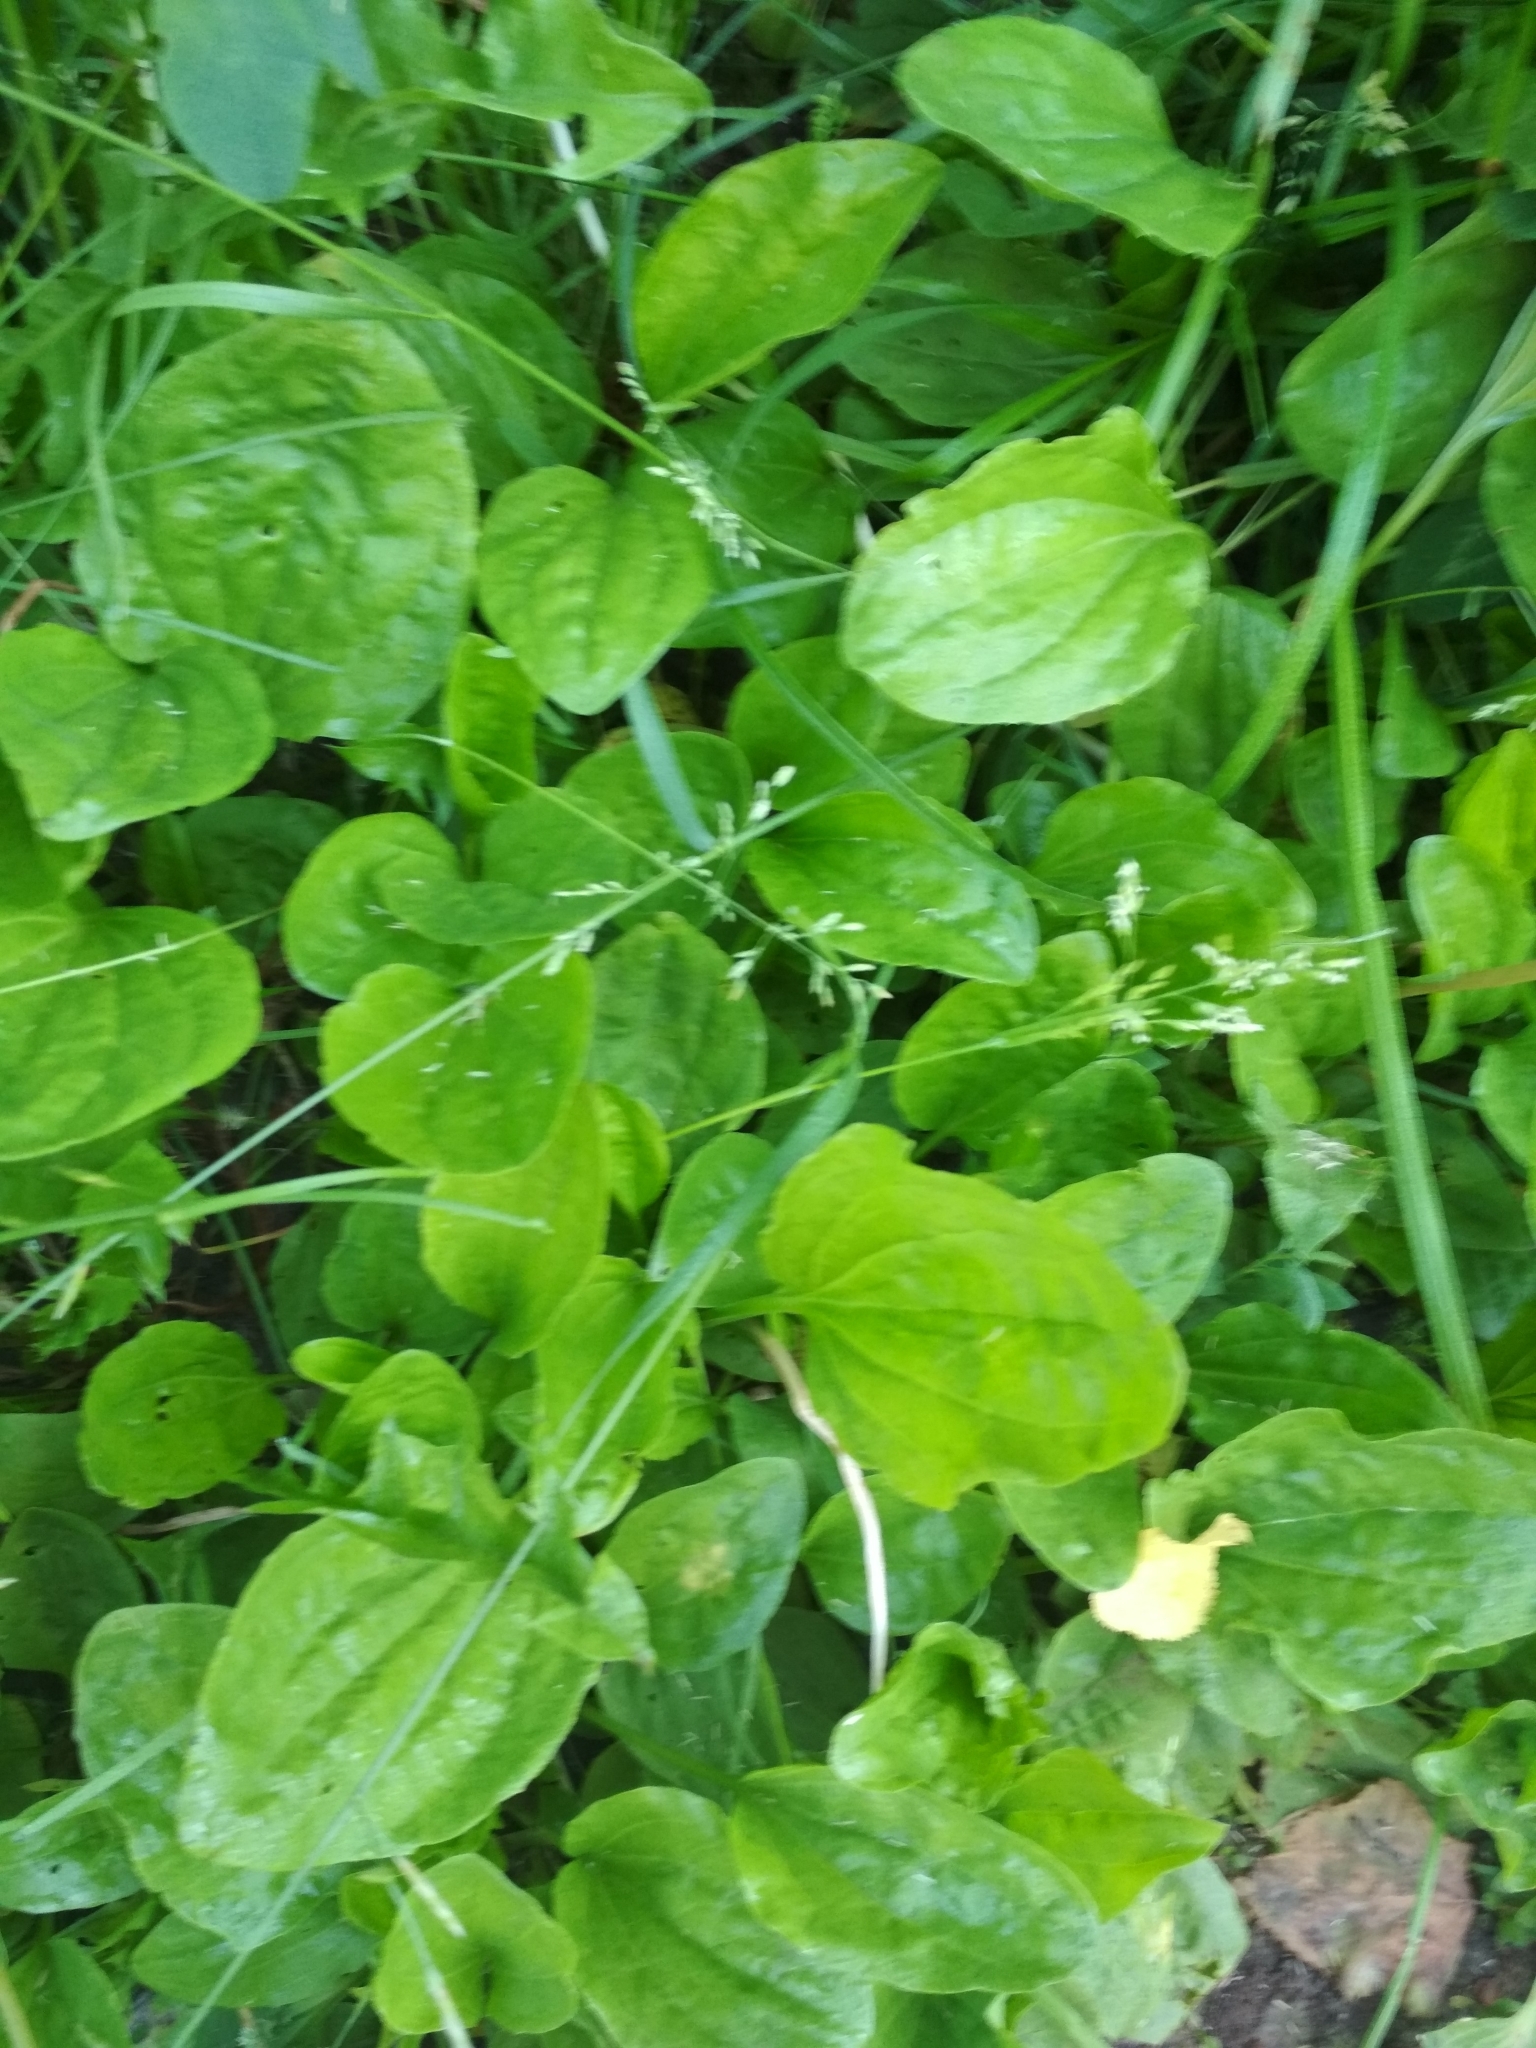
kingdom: Plantae
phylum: Tracheophyta
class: Magnoliopsida
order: Lamiales
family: Plantaginaceae
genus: Plantago
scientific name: Plantago major
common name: Common plantain
